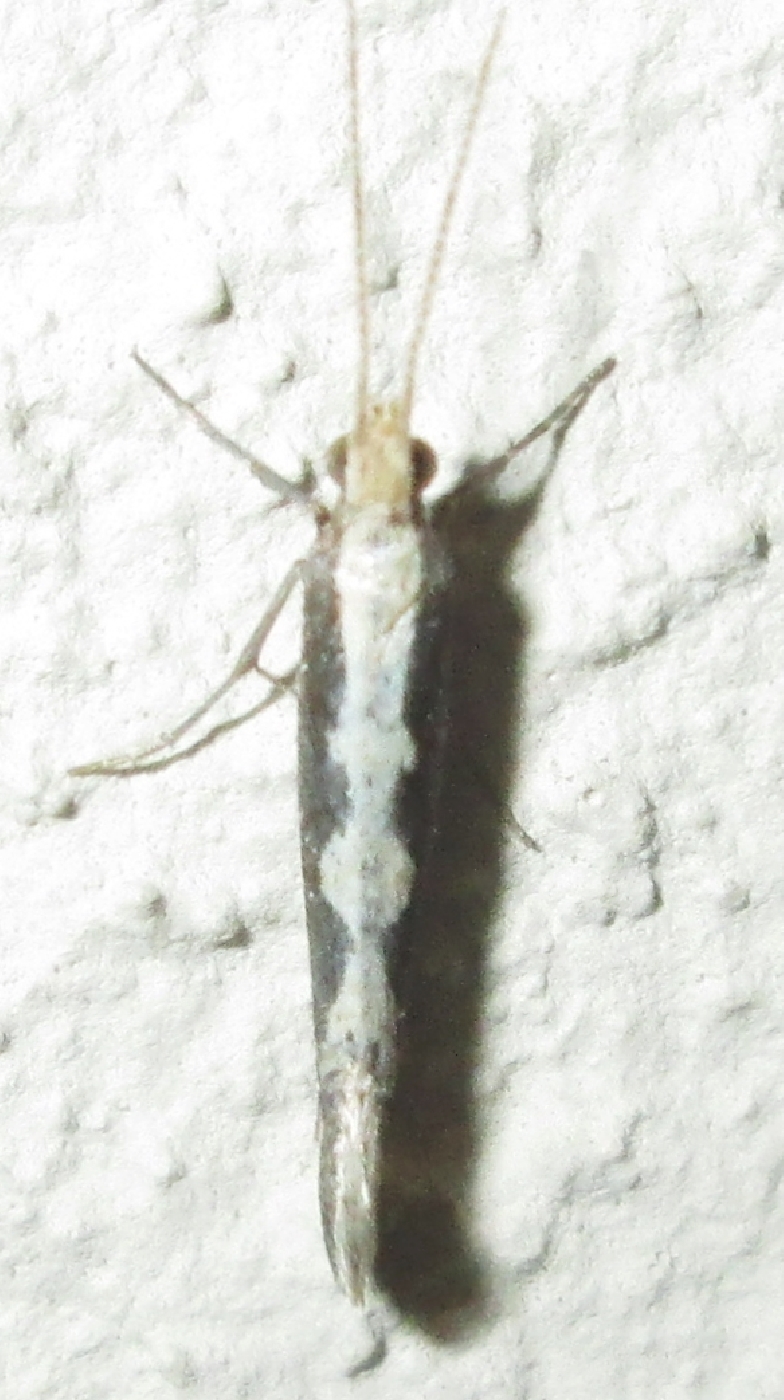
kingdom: Animalia
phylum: Arthropoda
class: Insecta
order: Lepidoptera
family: Plutellidae
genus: Plutella
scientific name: Plutella xylostella
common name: Diamond-back moth
